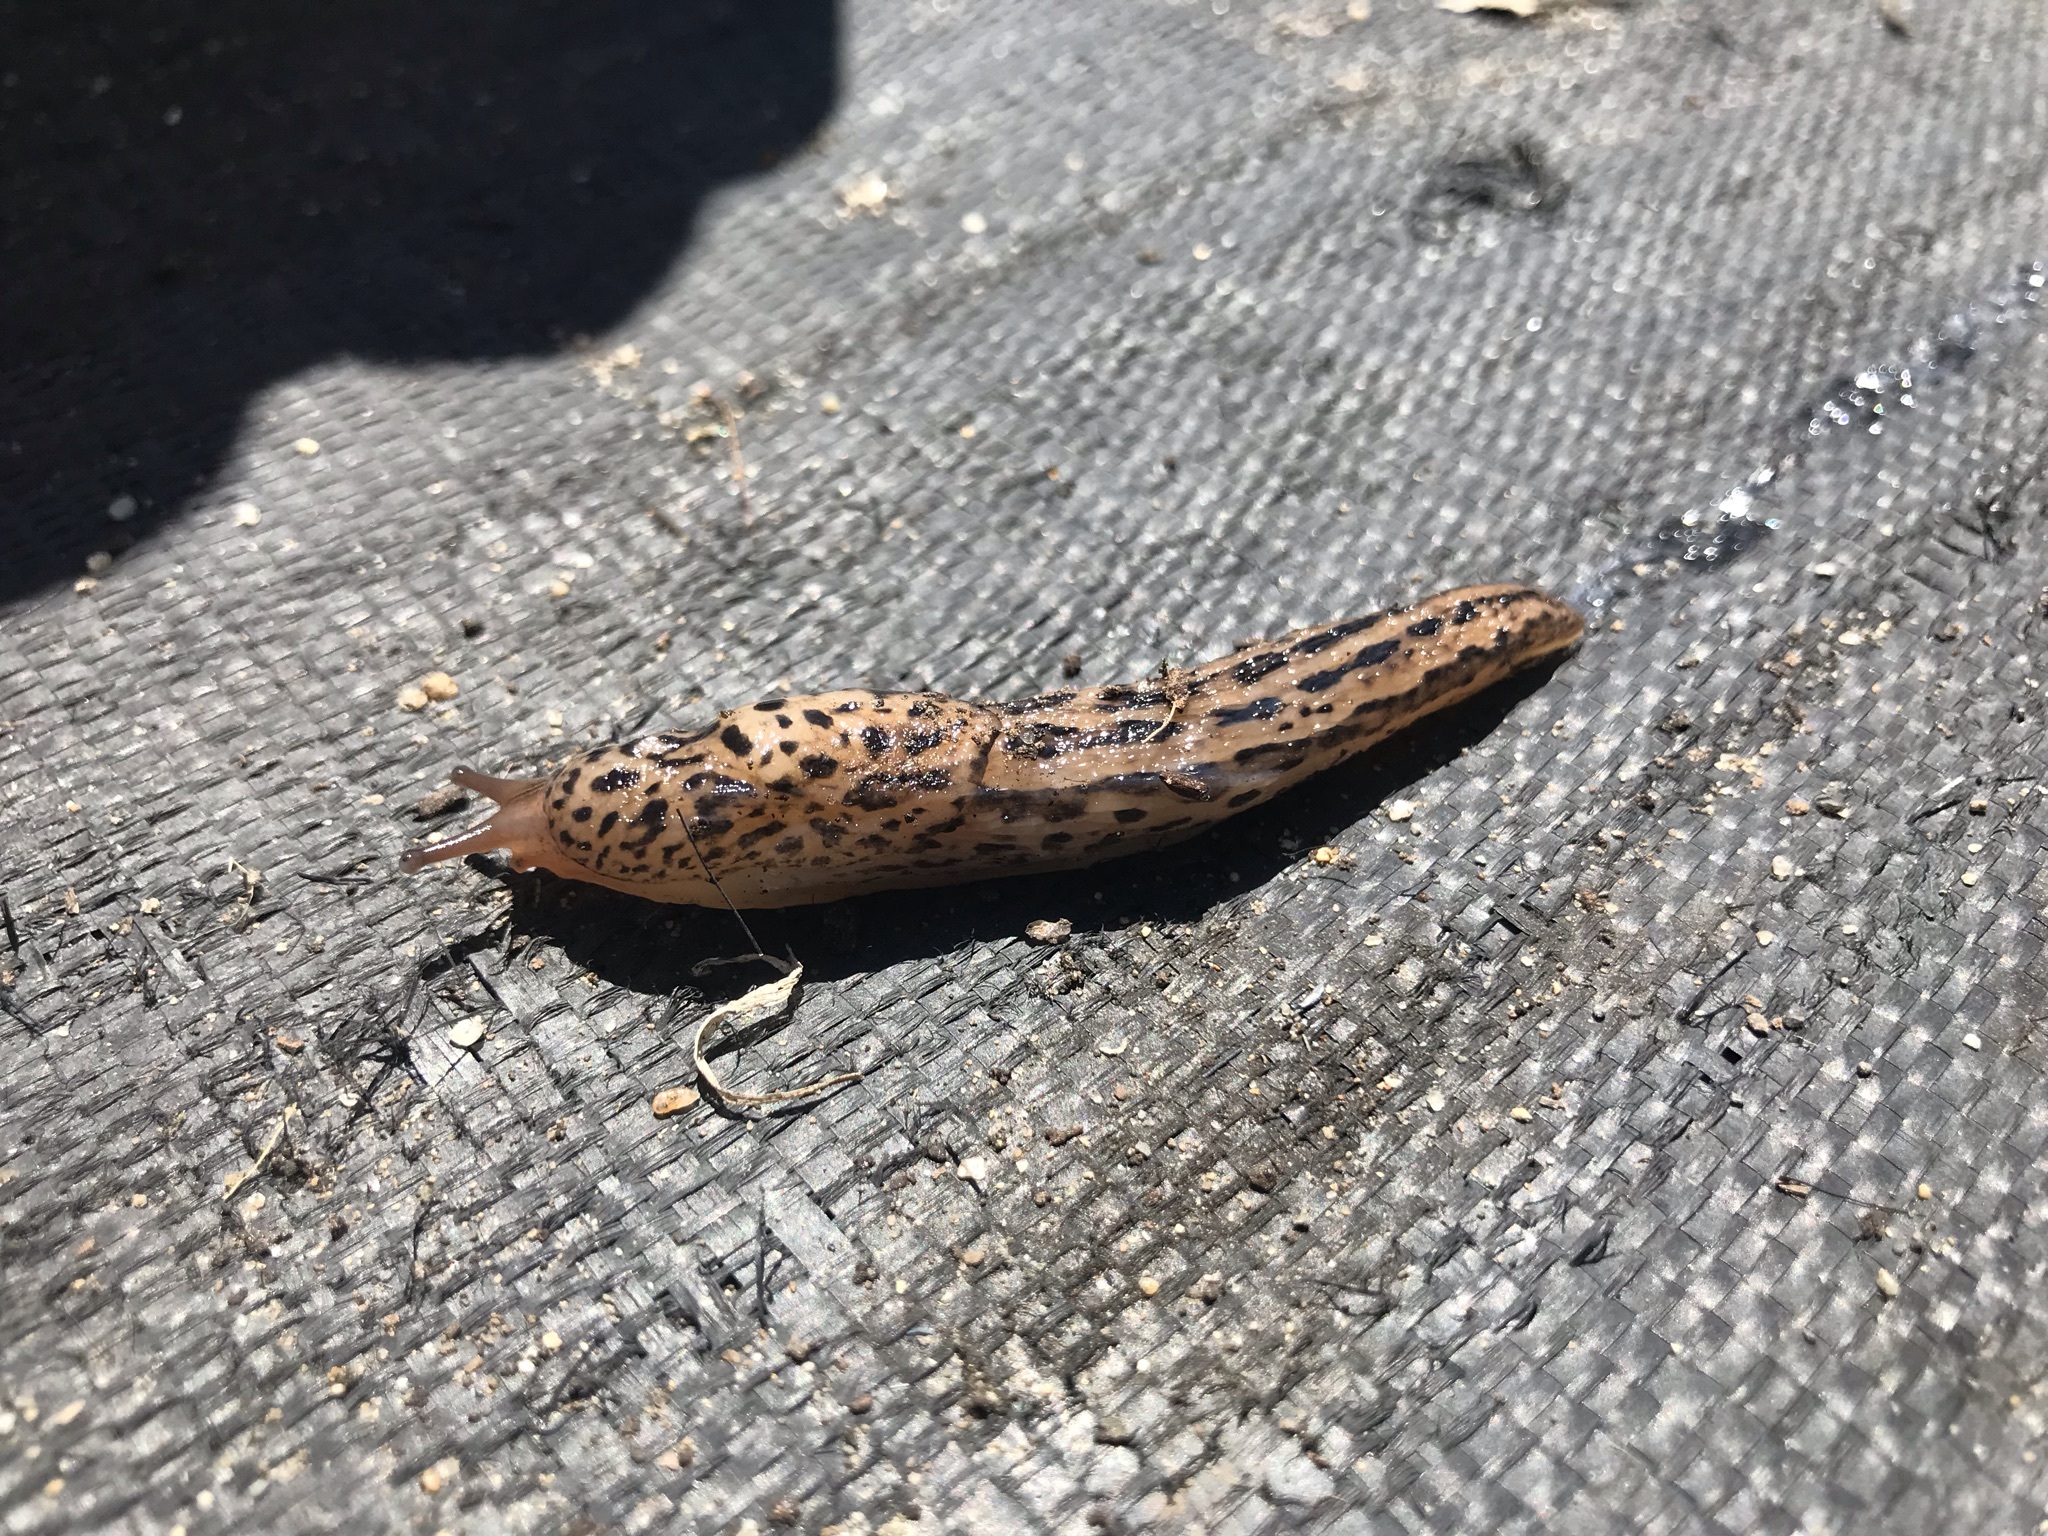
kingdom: Animalia
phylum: Mollusca
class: Gastropoda
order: Stylommatophora
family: Limacidae
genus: Limax
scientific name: Limax maximus
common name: Great grey slug
